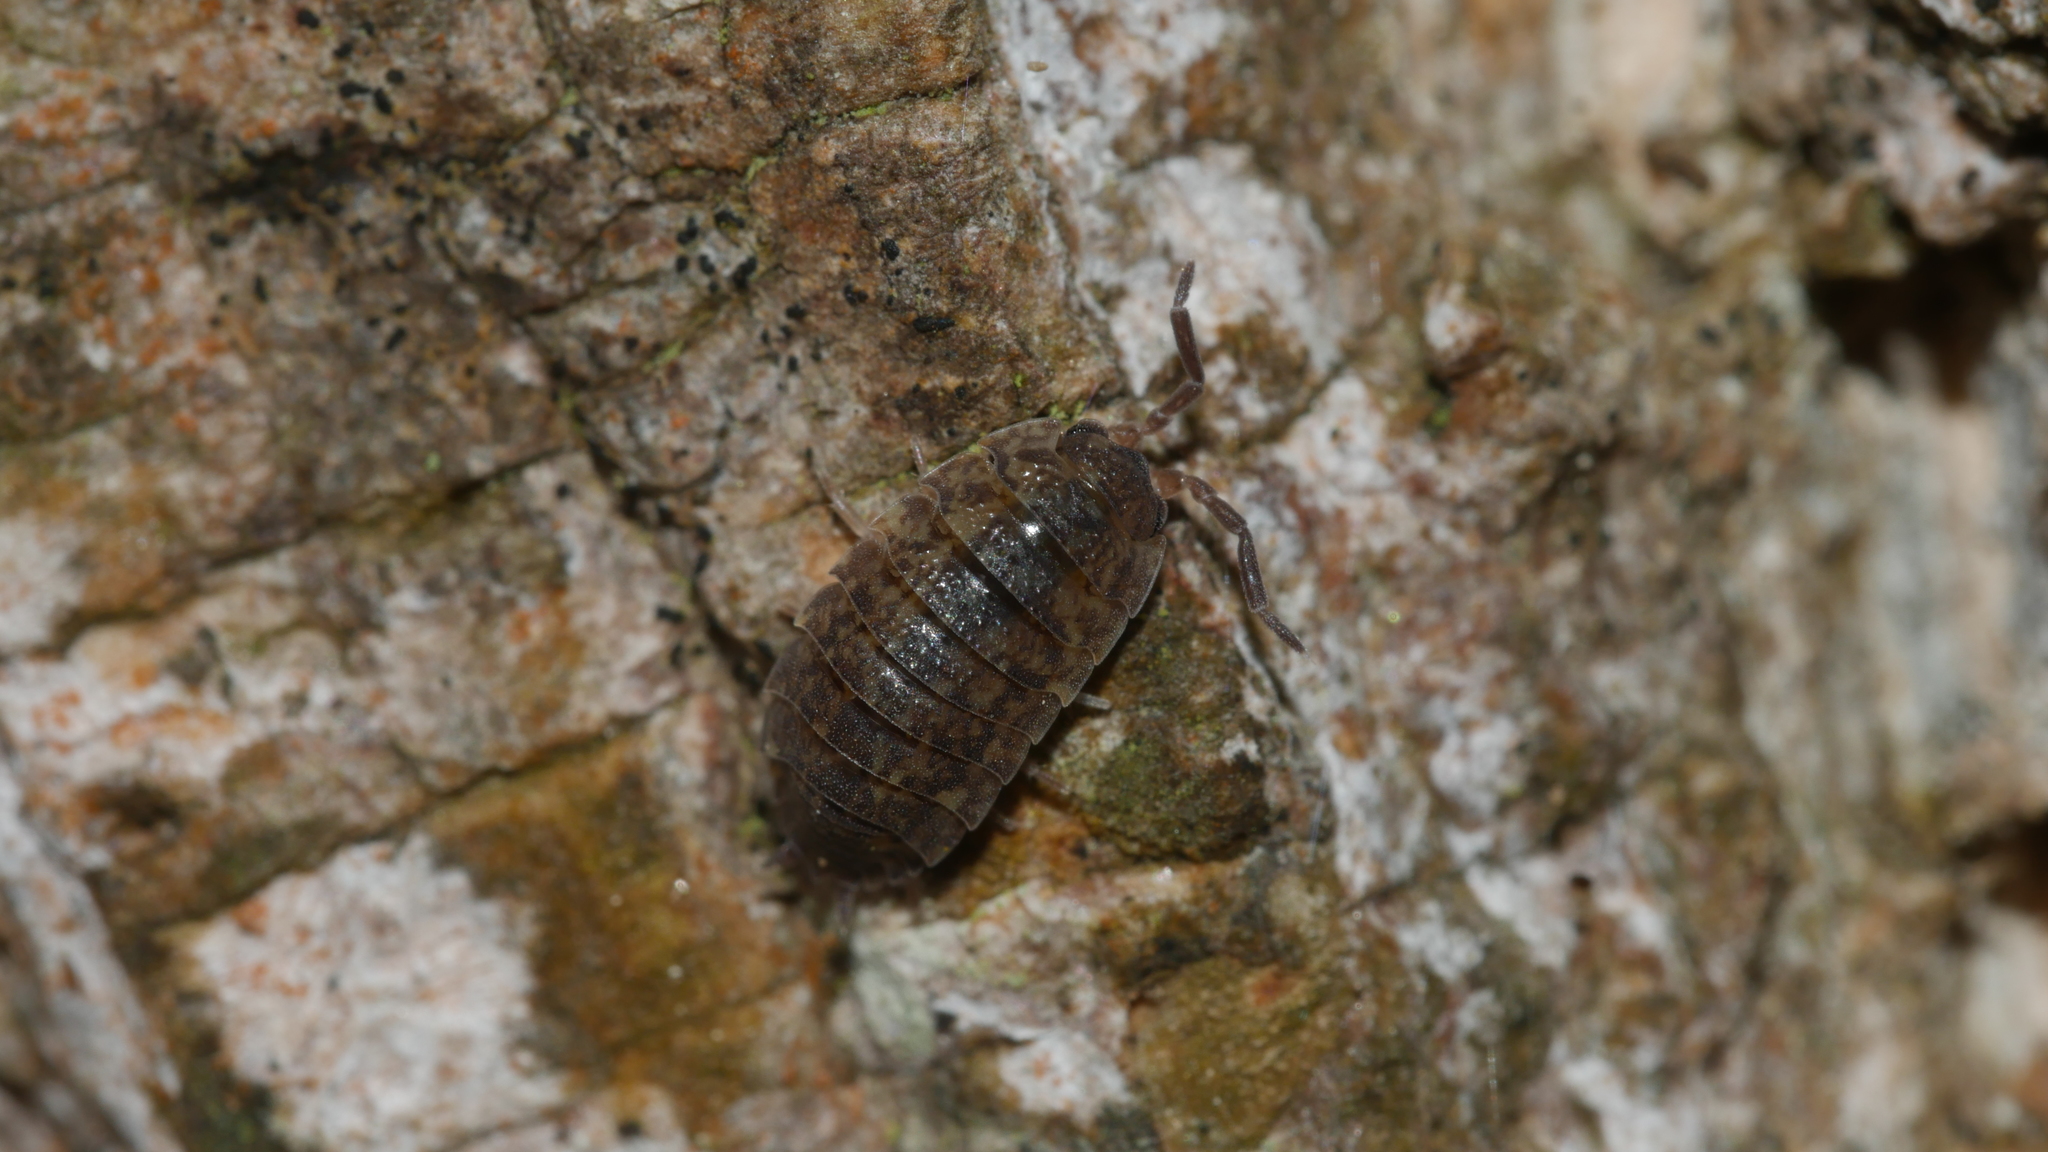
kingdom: Animalia
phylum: Arthropoda
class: Malacostraca
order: Isopoda
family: Porcellionidae
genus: Porcellio
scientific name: Porcellio scaber
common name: Common rough woodlouse
